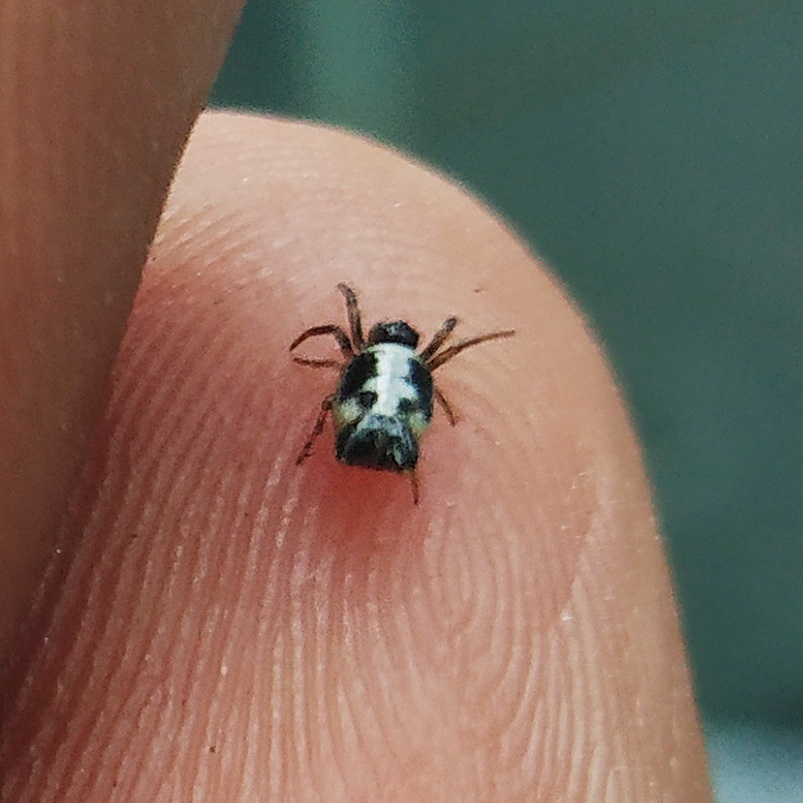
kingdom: Animalia
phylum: Arthropoda
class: Arachnida
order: Araneae
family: Araneidae
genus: Gasteracantha
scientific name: Gasteracantha geminata
